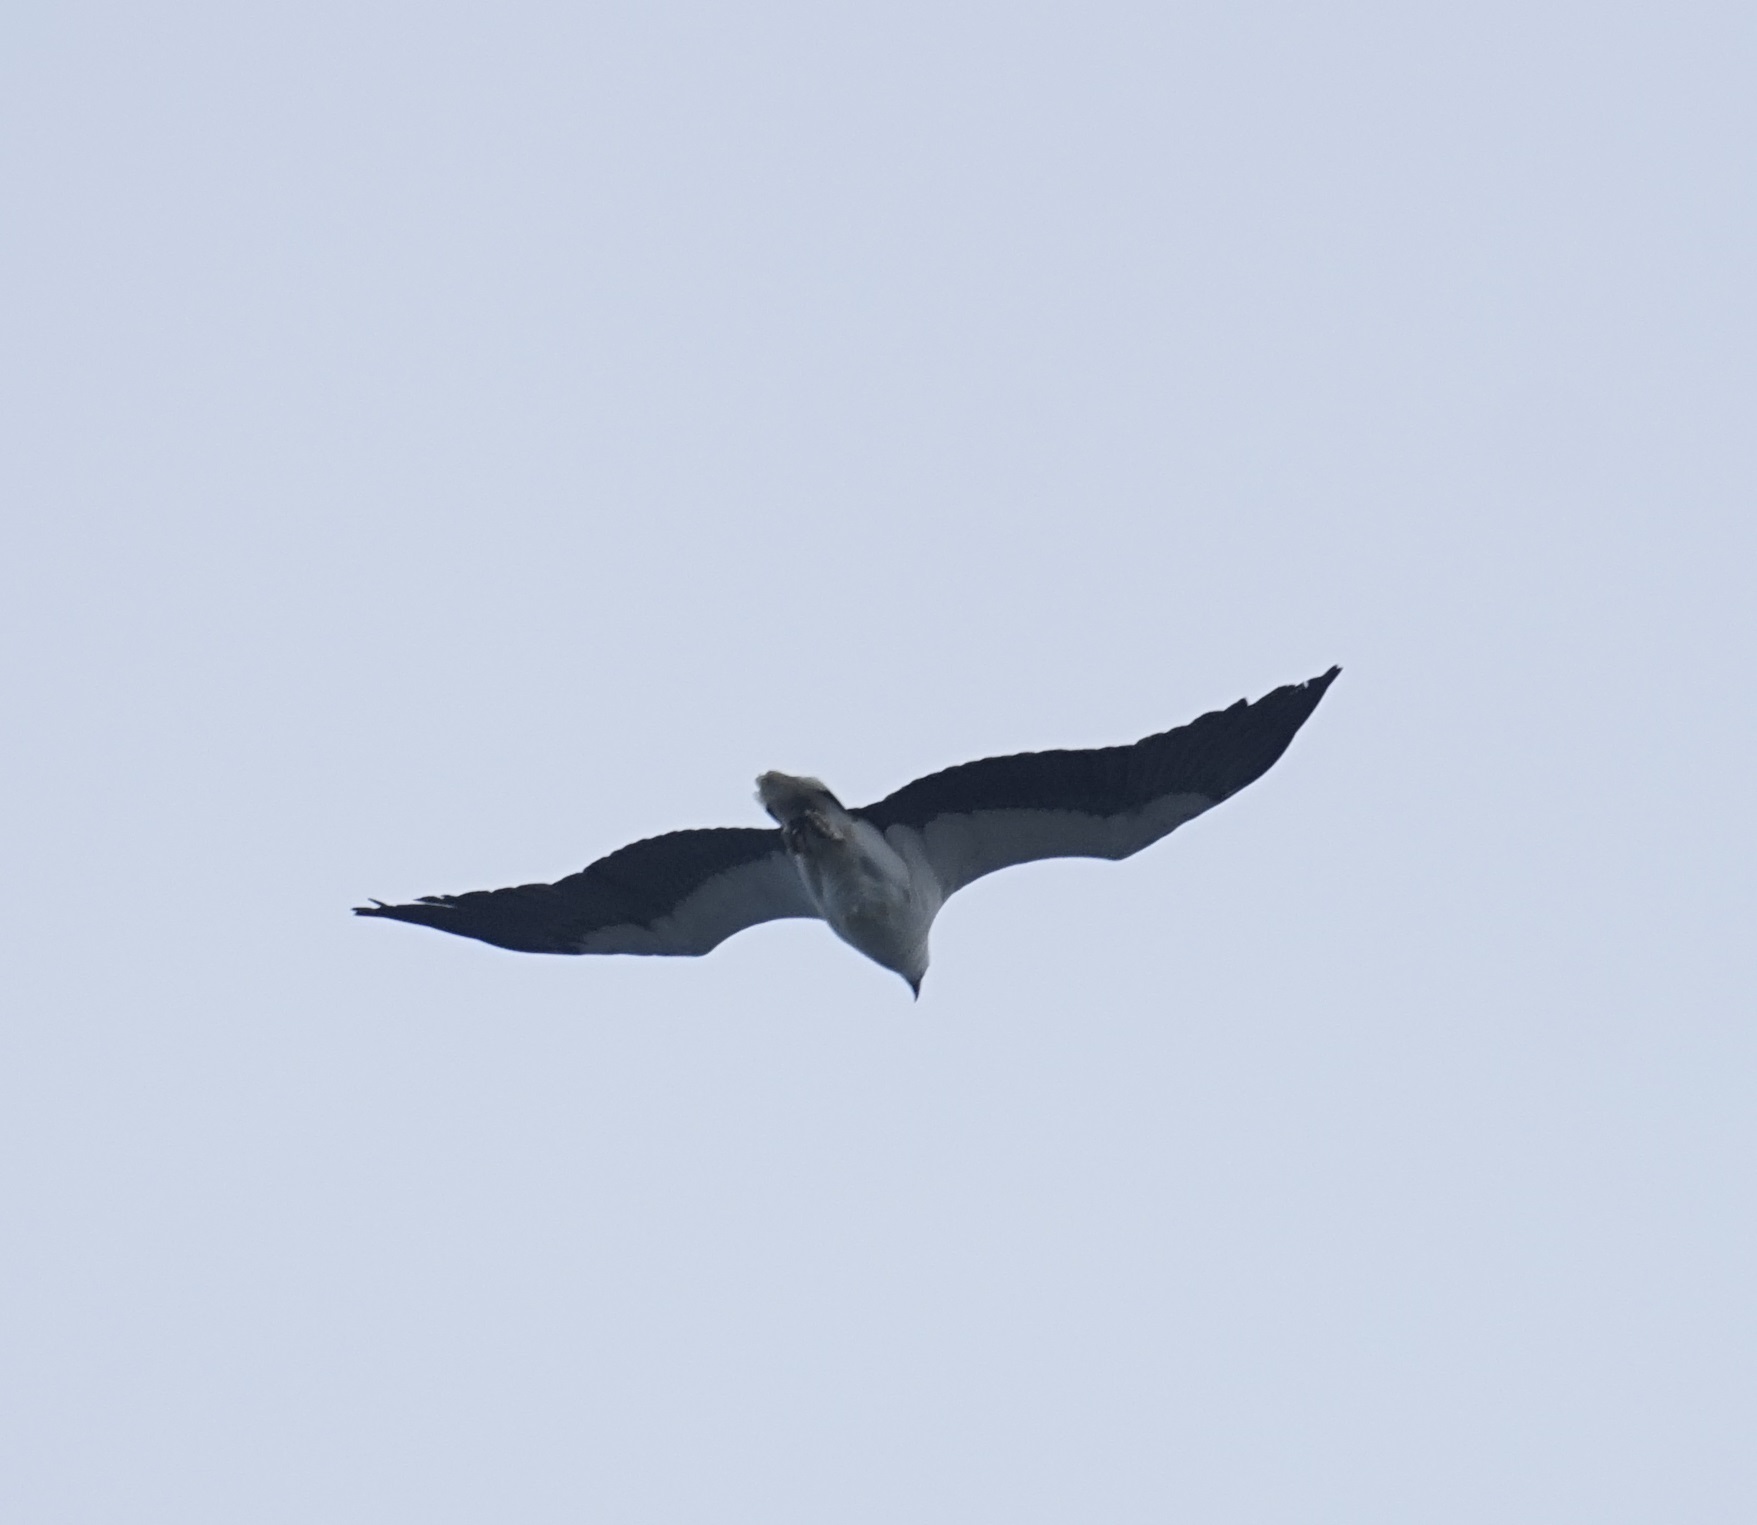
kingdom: Animalia
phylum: Chordata
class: Aves
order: Accipitriformes
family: Accipitridae
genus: Haliaeetus
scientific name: Haliaeetus leucogaster
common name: White-bellied sea eagle
